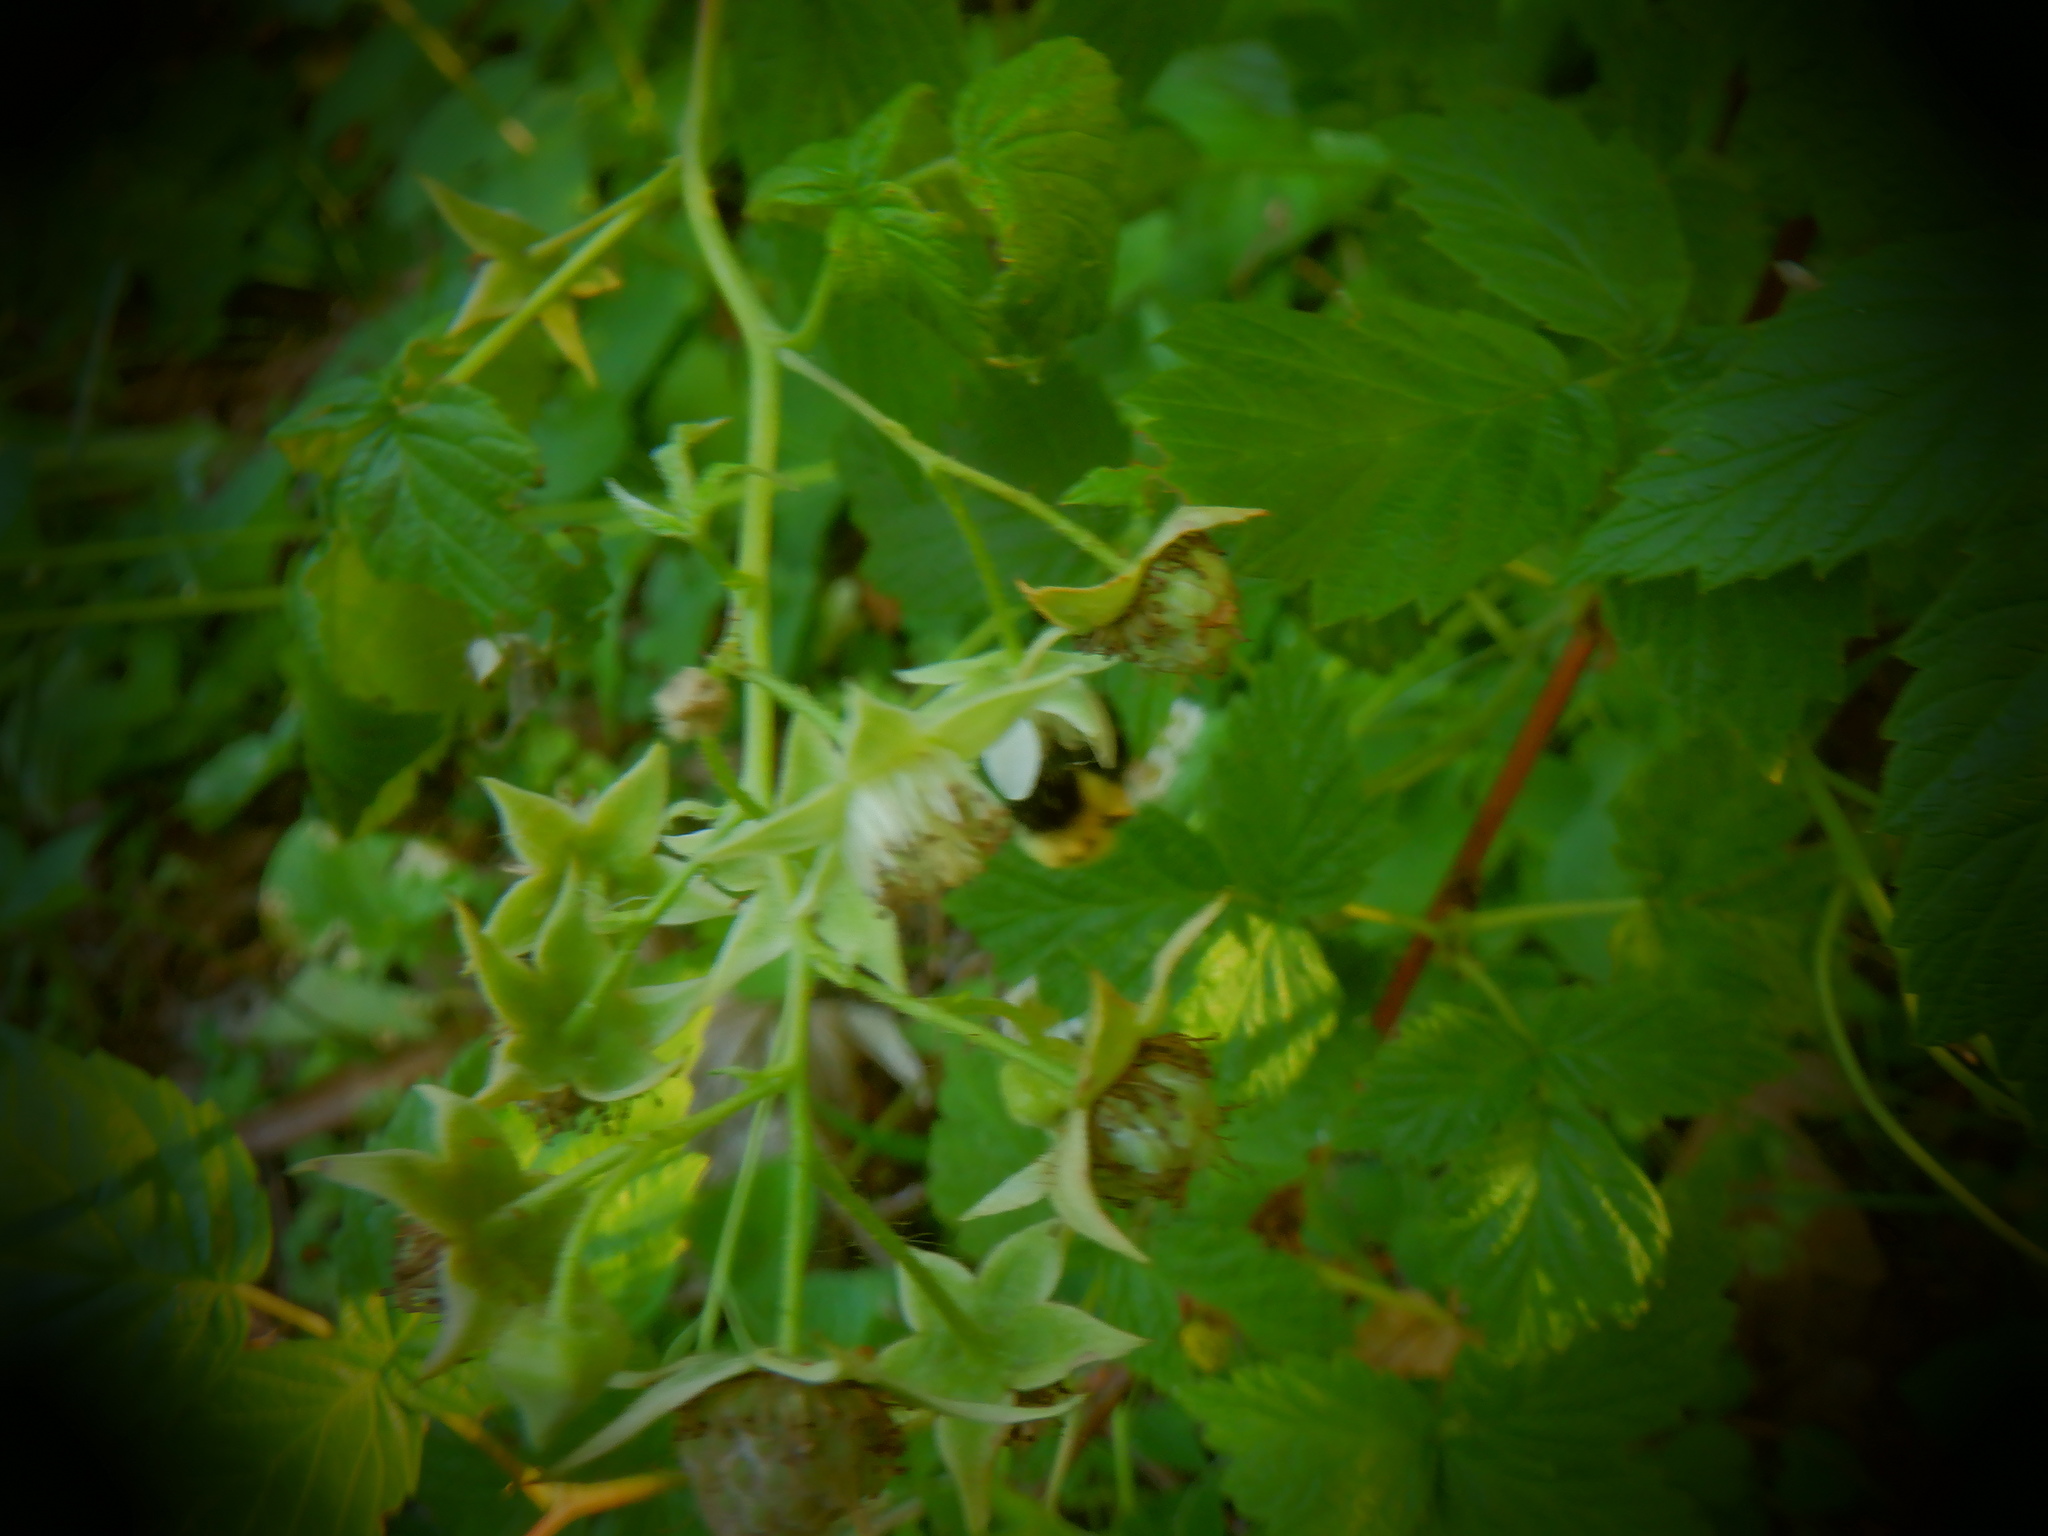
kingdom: Animalia
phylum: Arthropoda
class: Insecta
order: Hymenoptera
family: Apidae
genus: Bombus
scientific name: Bombus
